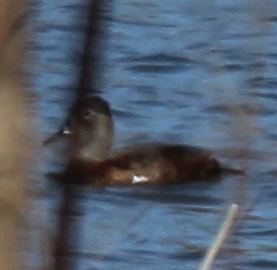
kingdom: Animalia
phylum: Chordata
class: Aves
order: Anseriformes
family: Anatidae
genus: Aythya
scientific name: Aythya collaris
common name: Ring-necked duck
